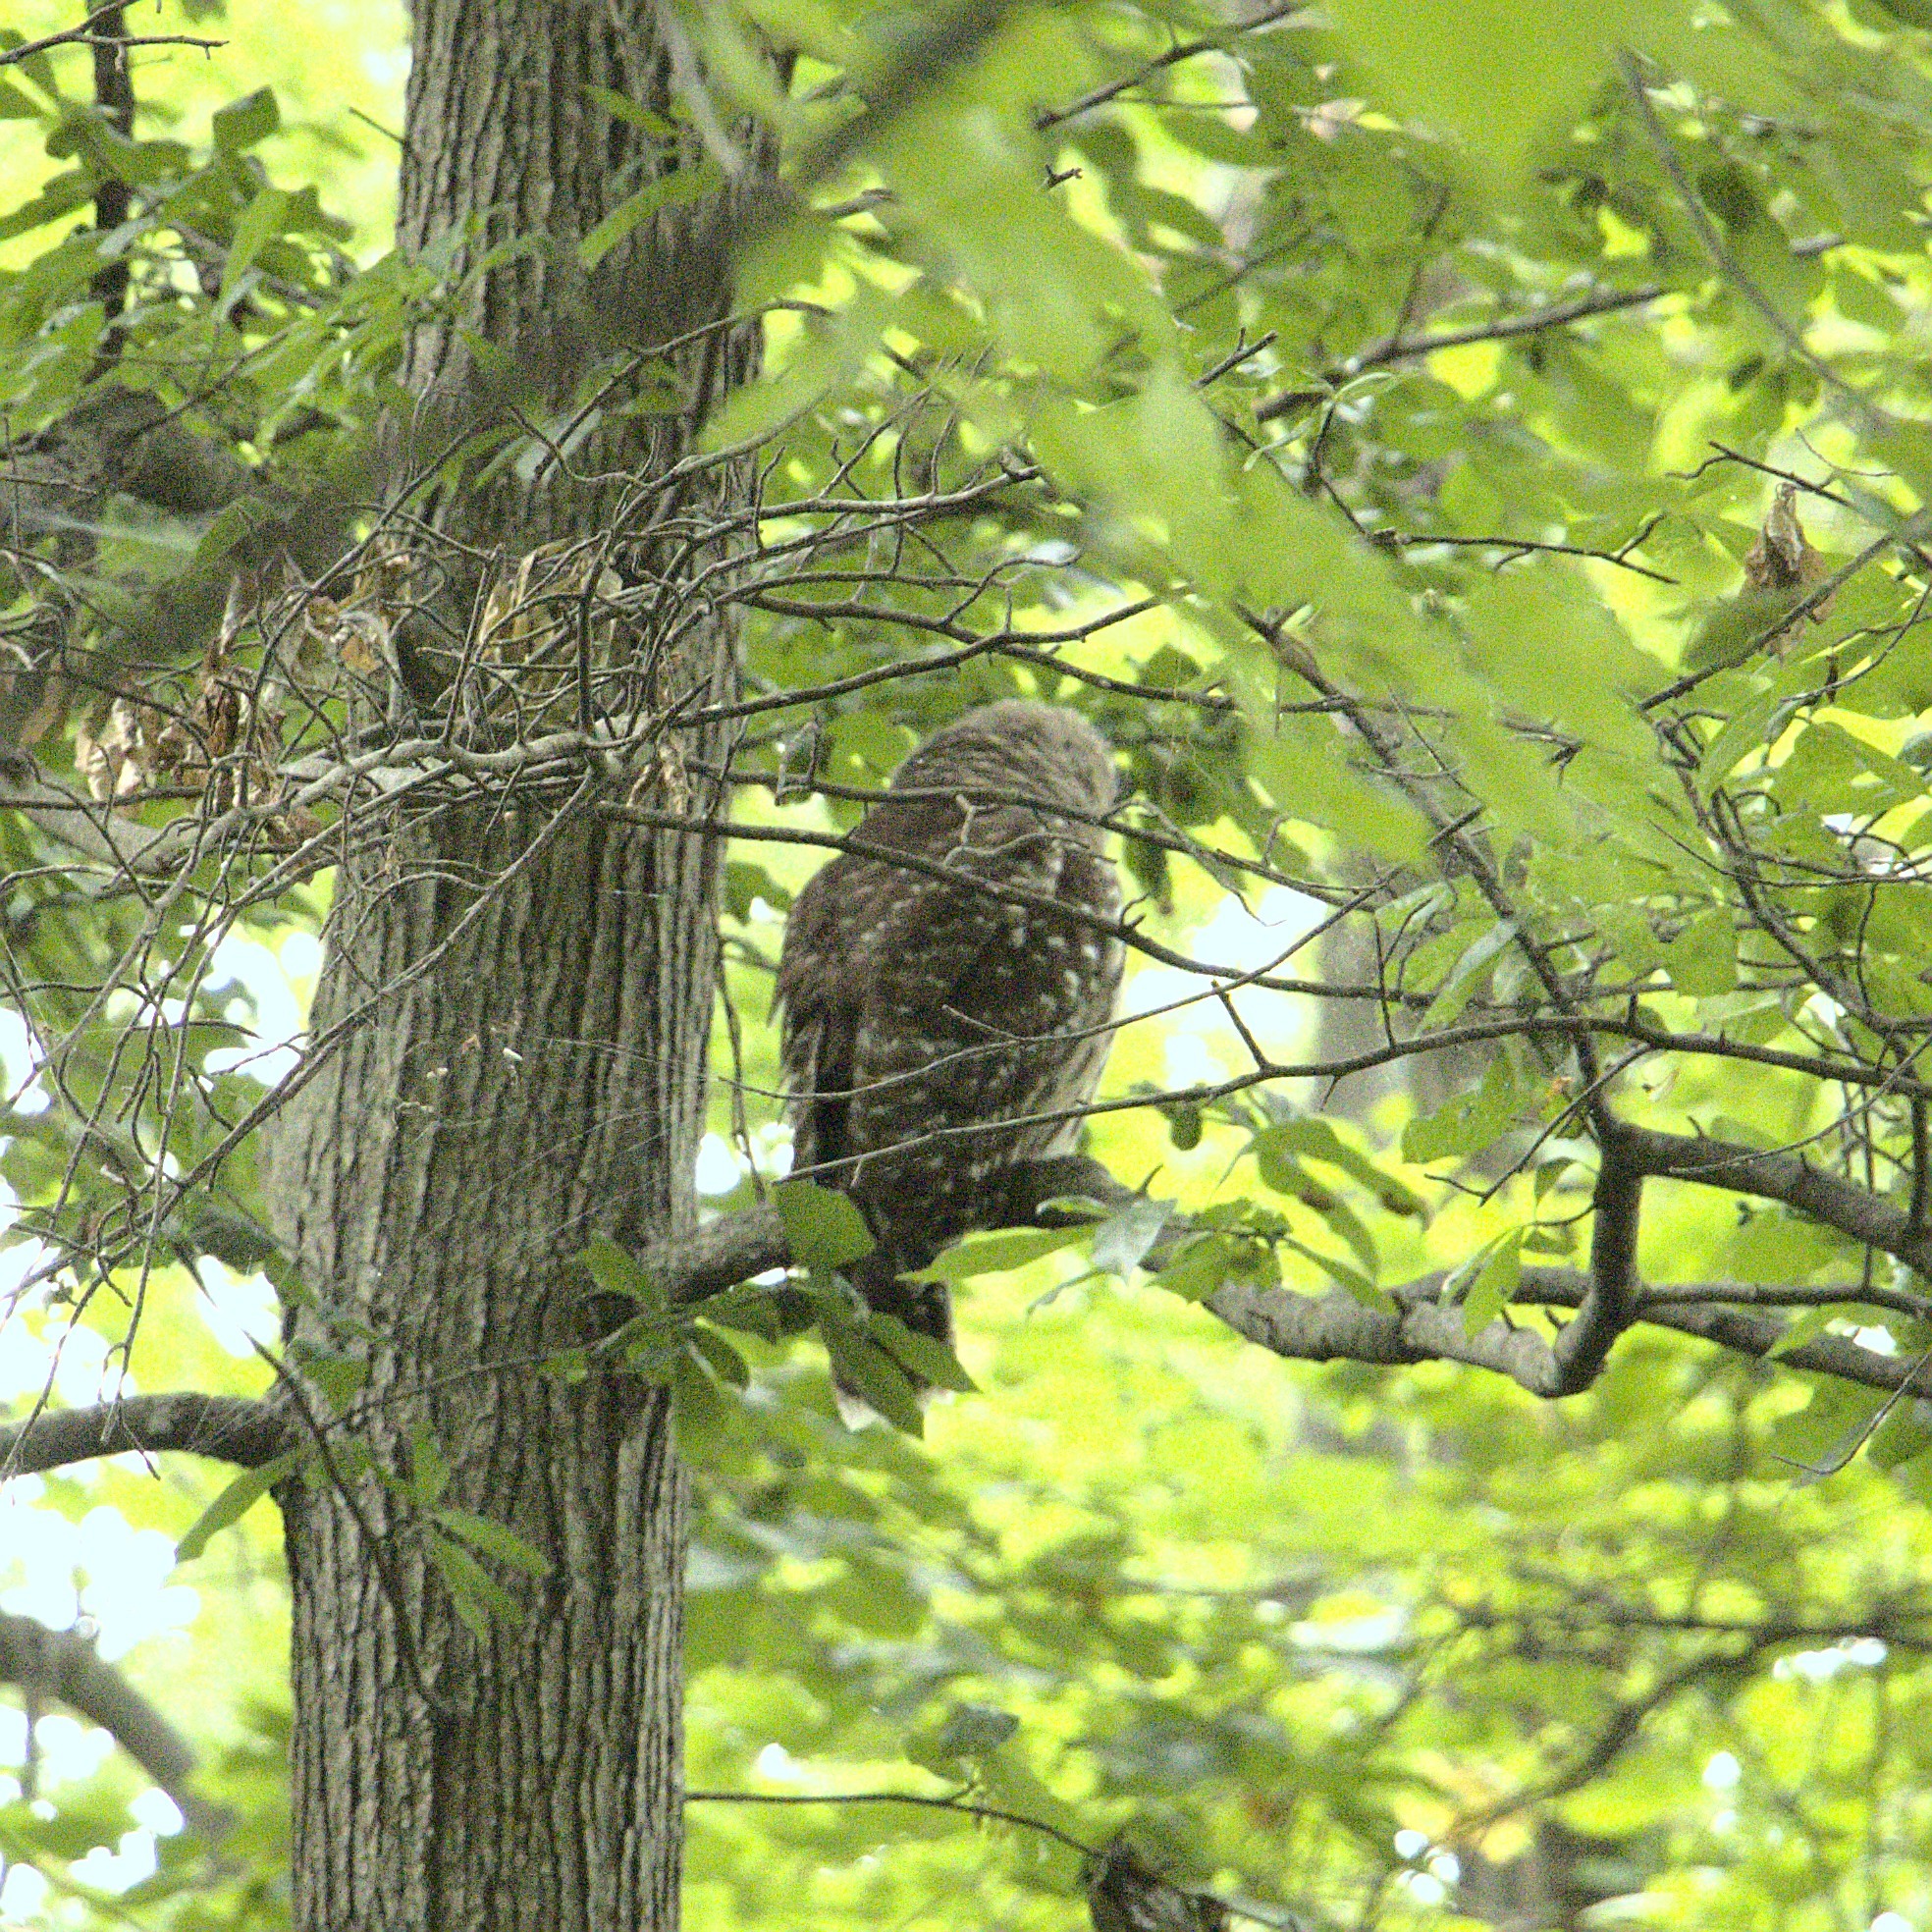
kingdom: Animalia
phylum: Chordata
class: Aves
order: Strigiformes
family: Strigidae
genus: Strix
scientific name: Strix varia
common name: Barred owl
